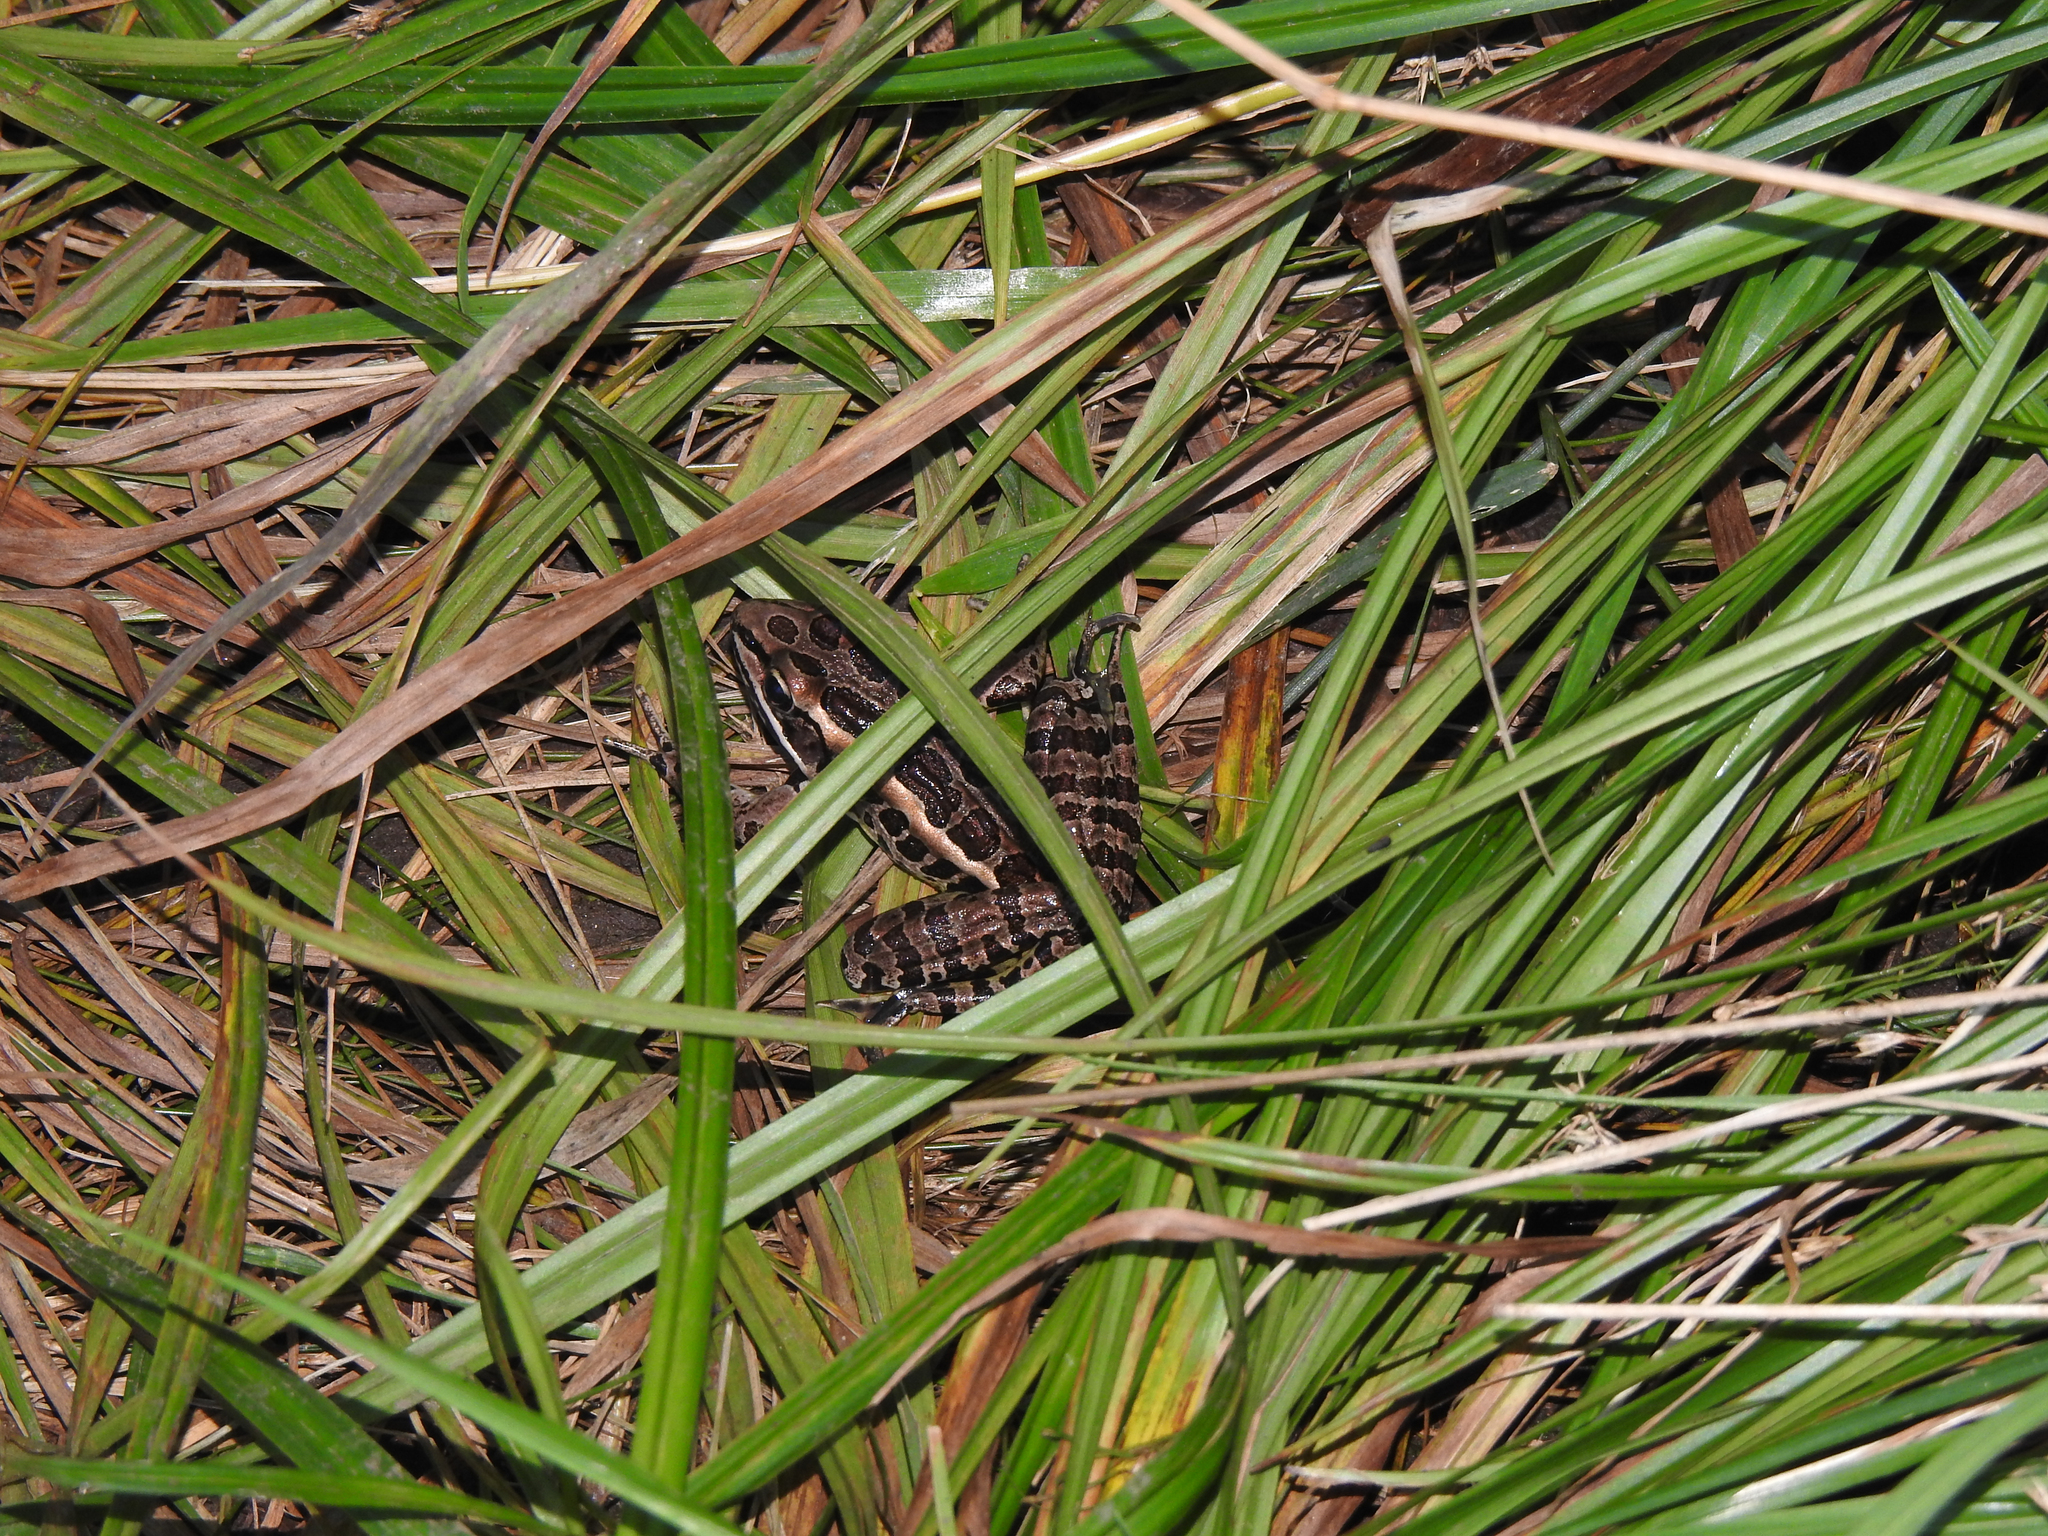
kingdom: Animalia
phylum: Chordata
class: Amphibia
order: Anura
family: Ranidae
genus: Lithobates
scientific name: Lithobates palustris
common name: Pickerel frog
